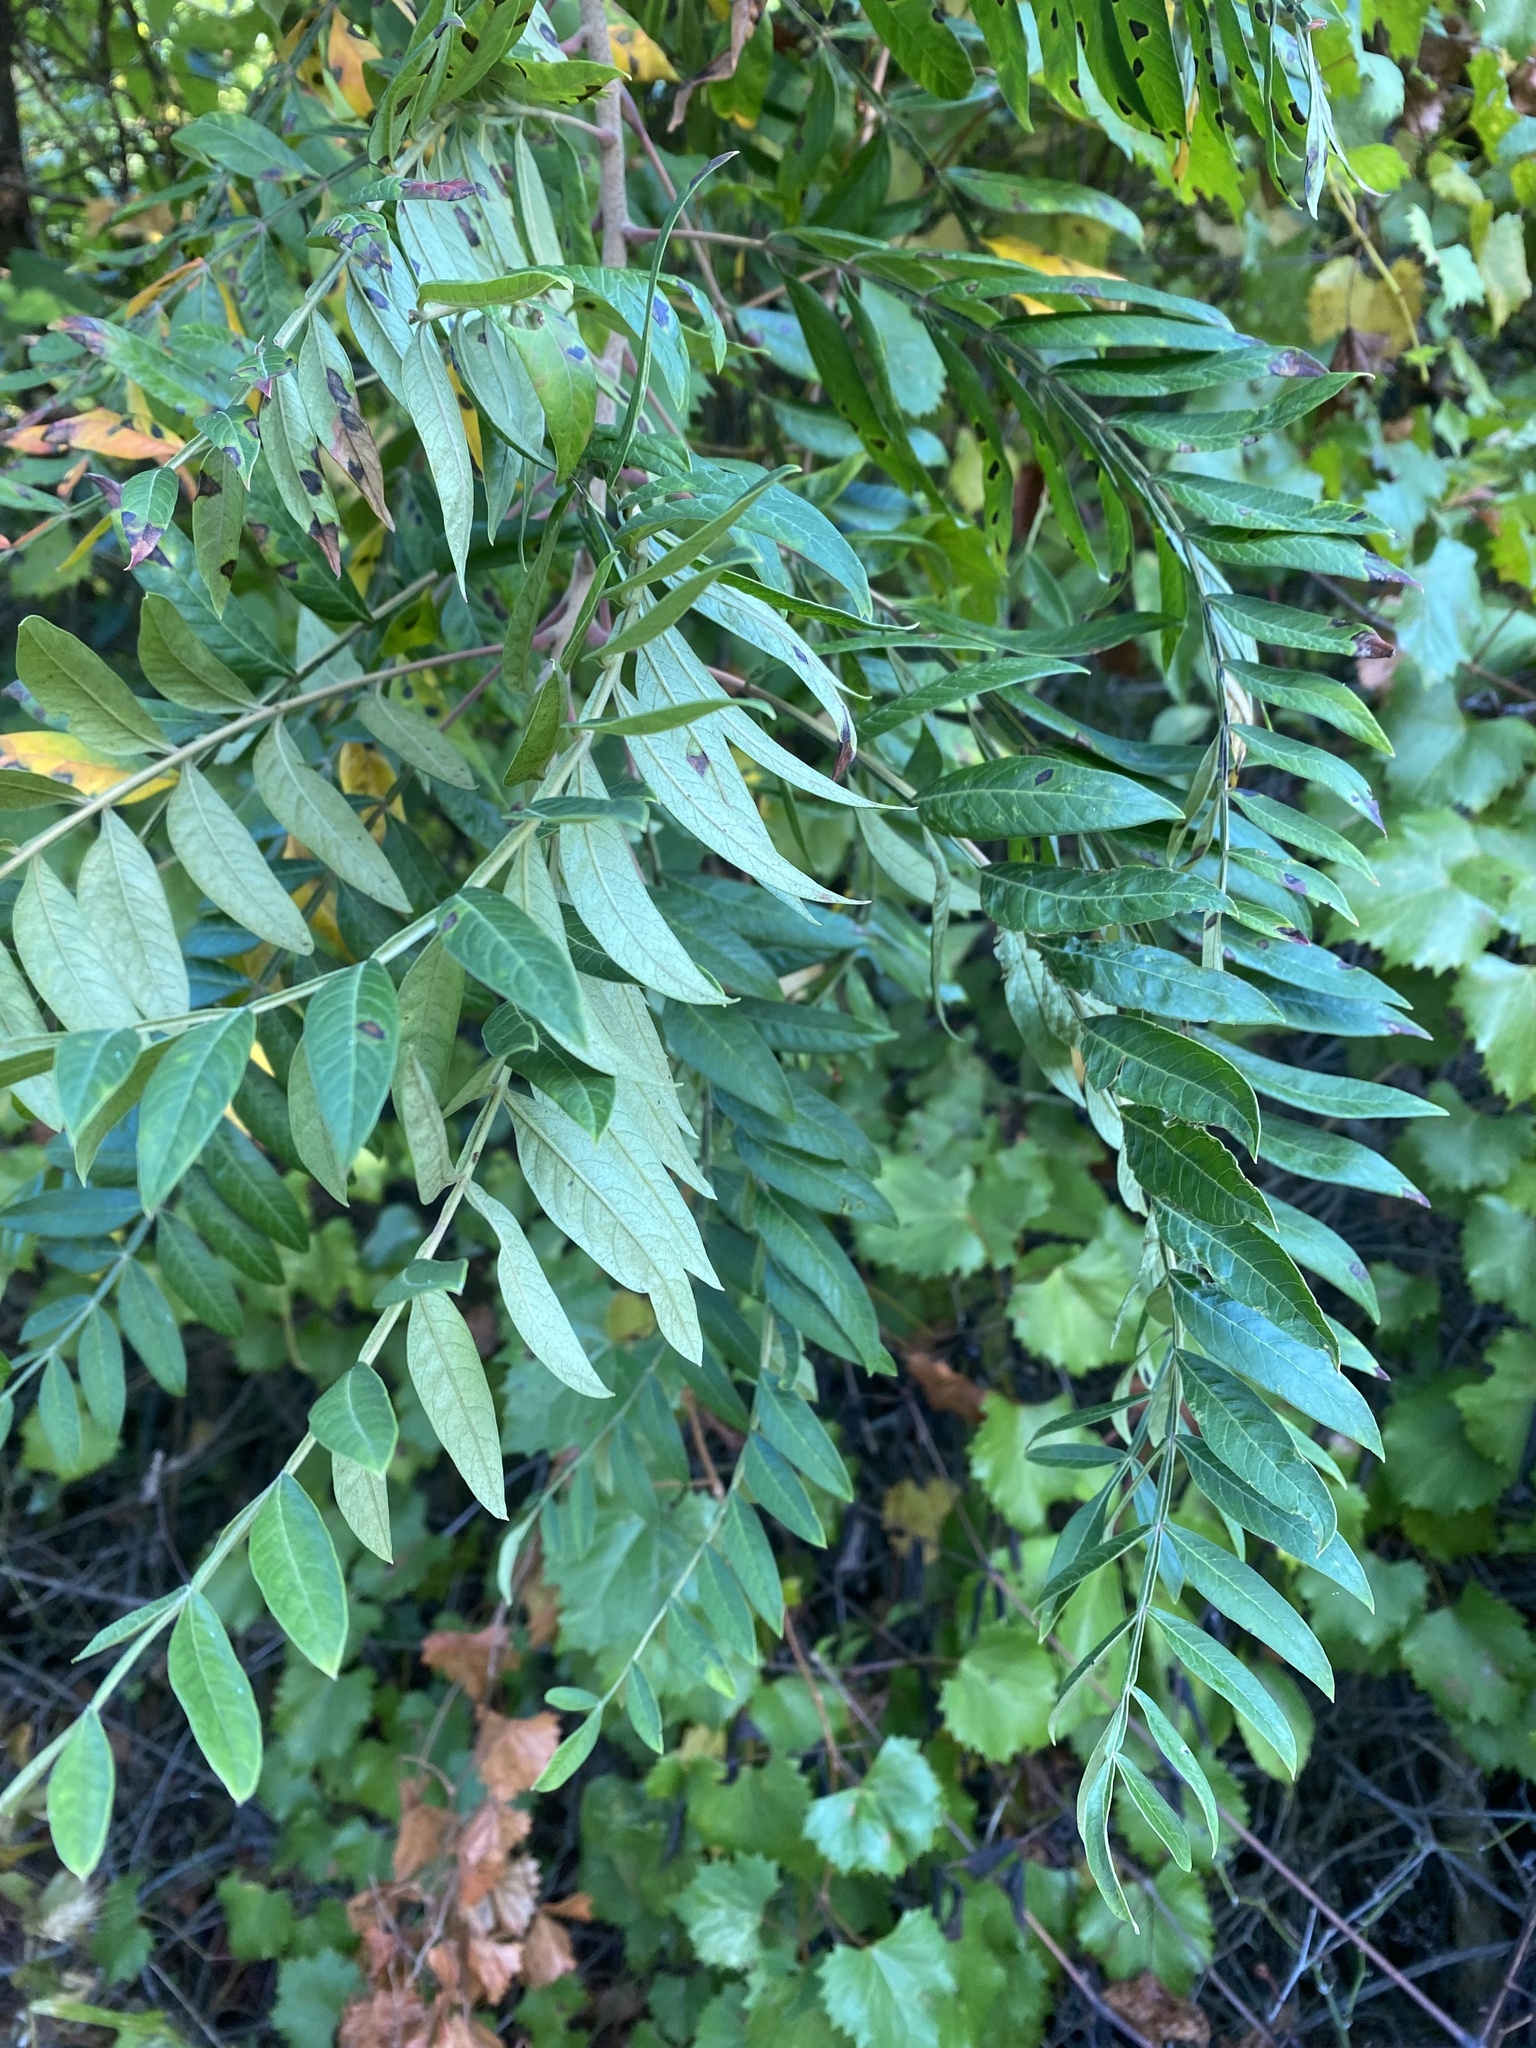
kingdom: Plantae
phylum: Tracheophyta
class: Magnoliopsida
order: Sapindales
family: Anacardiaceae
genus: Rhus
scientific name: Rhus copallina
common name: Shining sumac
